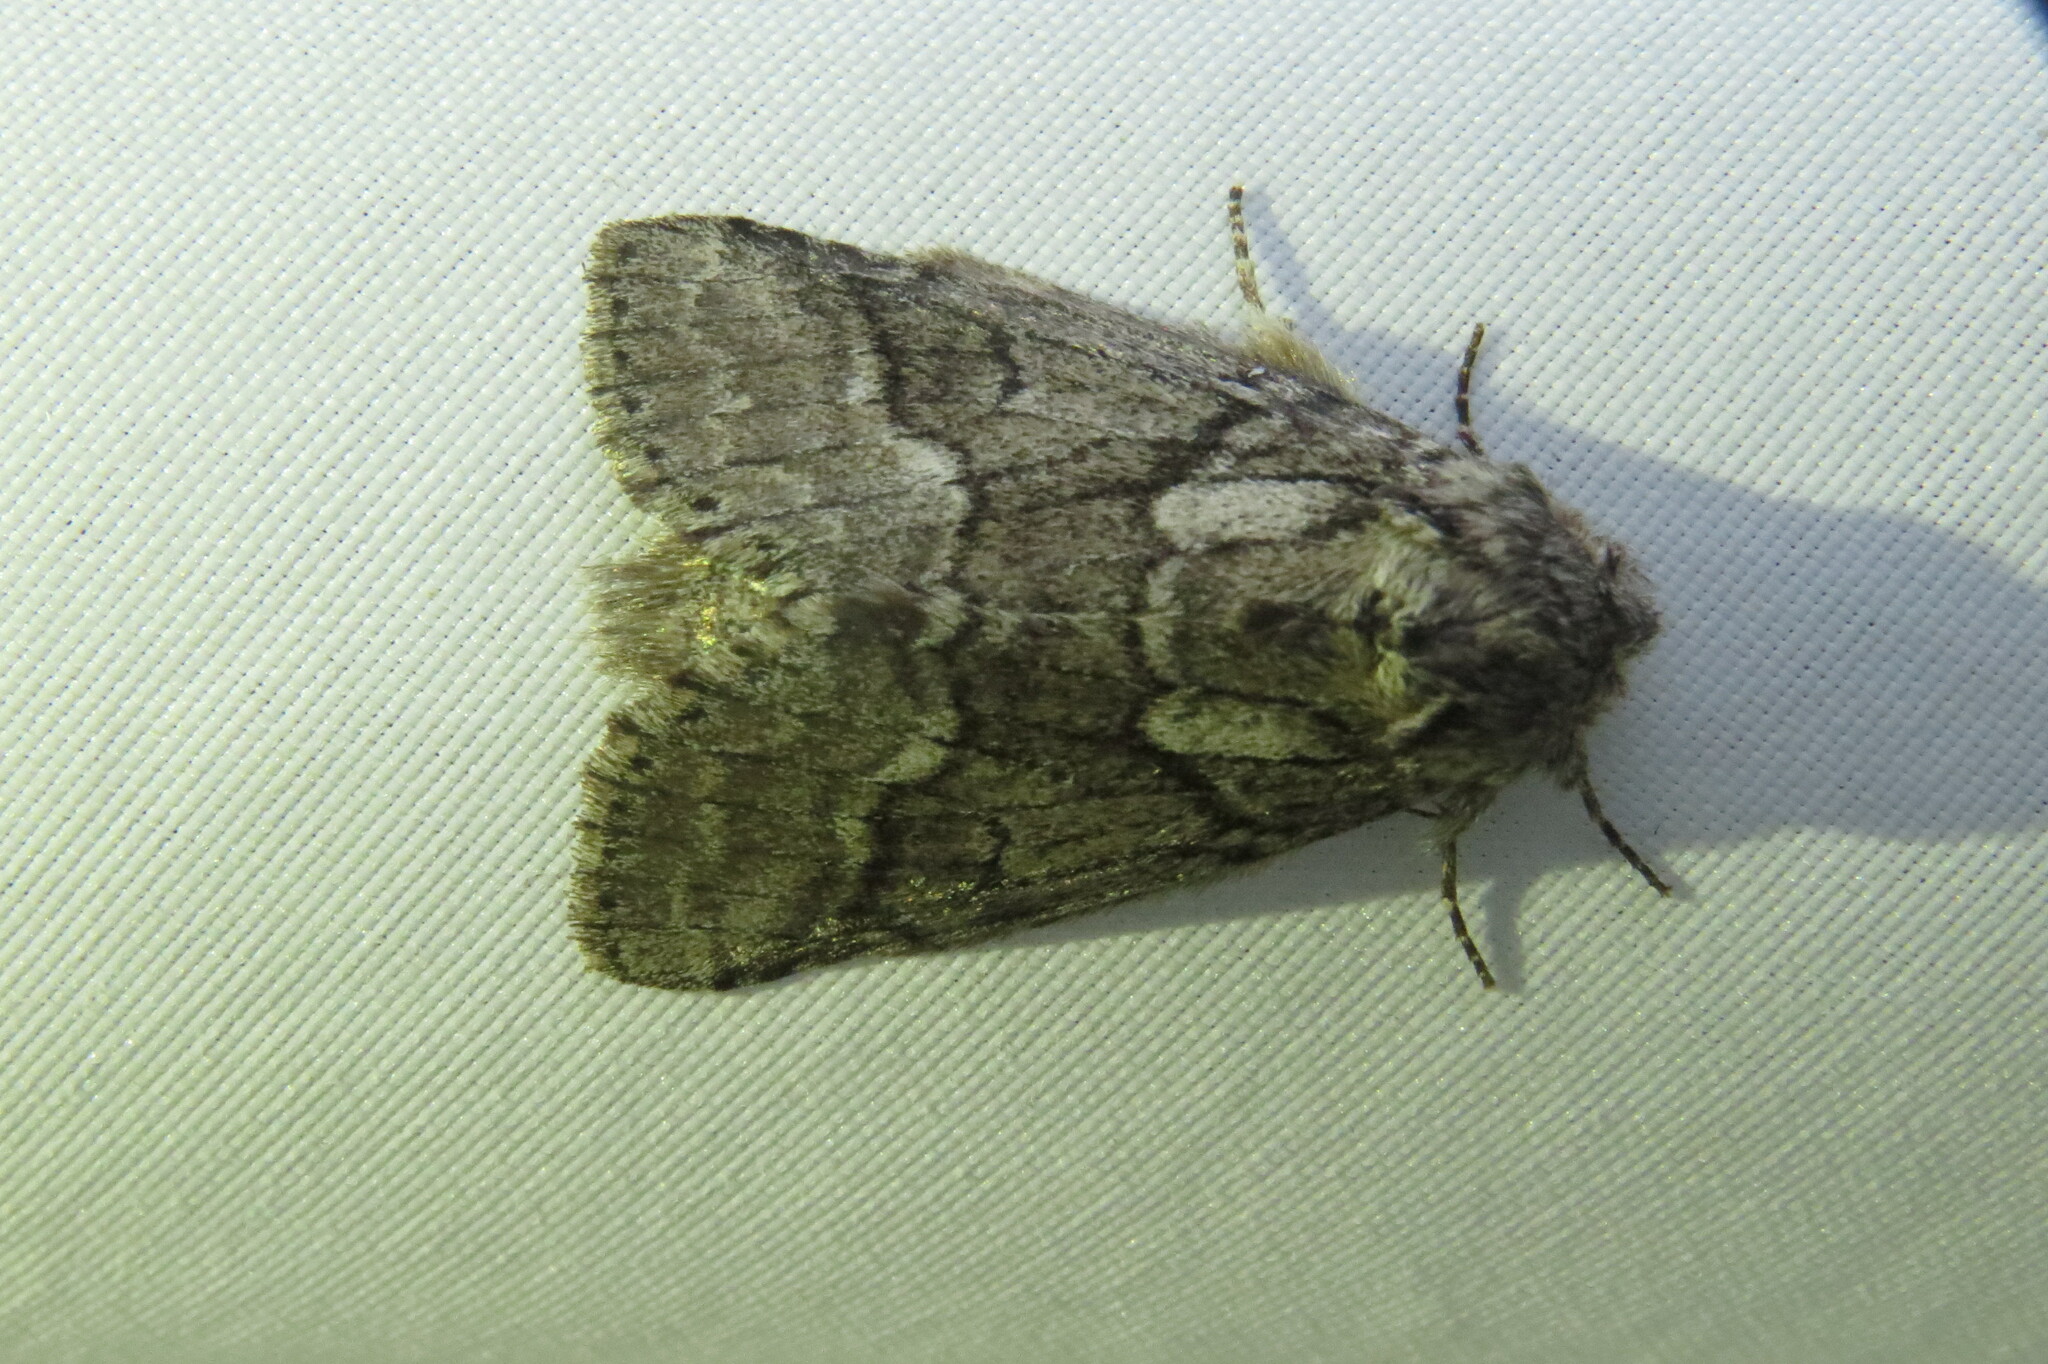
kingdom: Animalia
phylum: Arthropoda
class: Insecta
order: Lepidoptera
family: Notodontidae
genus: Lochmaeus
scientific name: Lochmaeus bilineata
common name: Double-lined prominent
